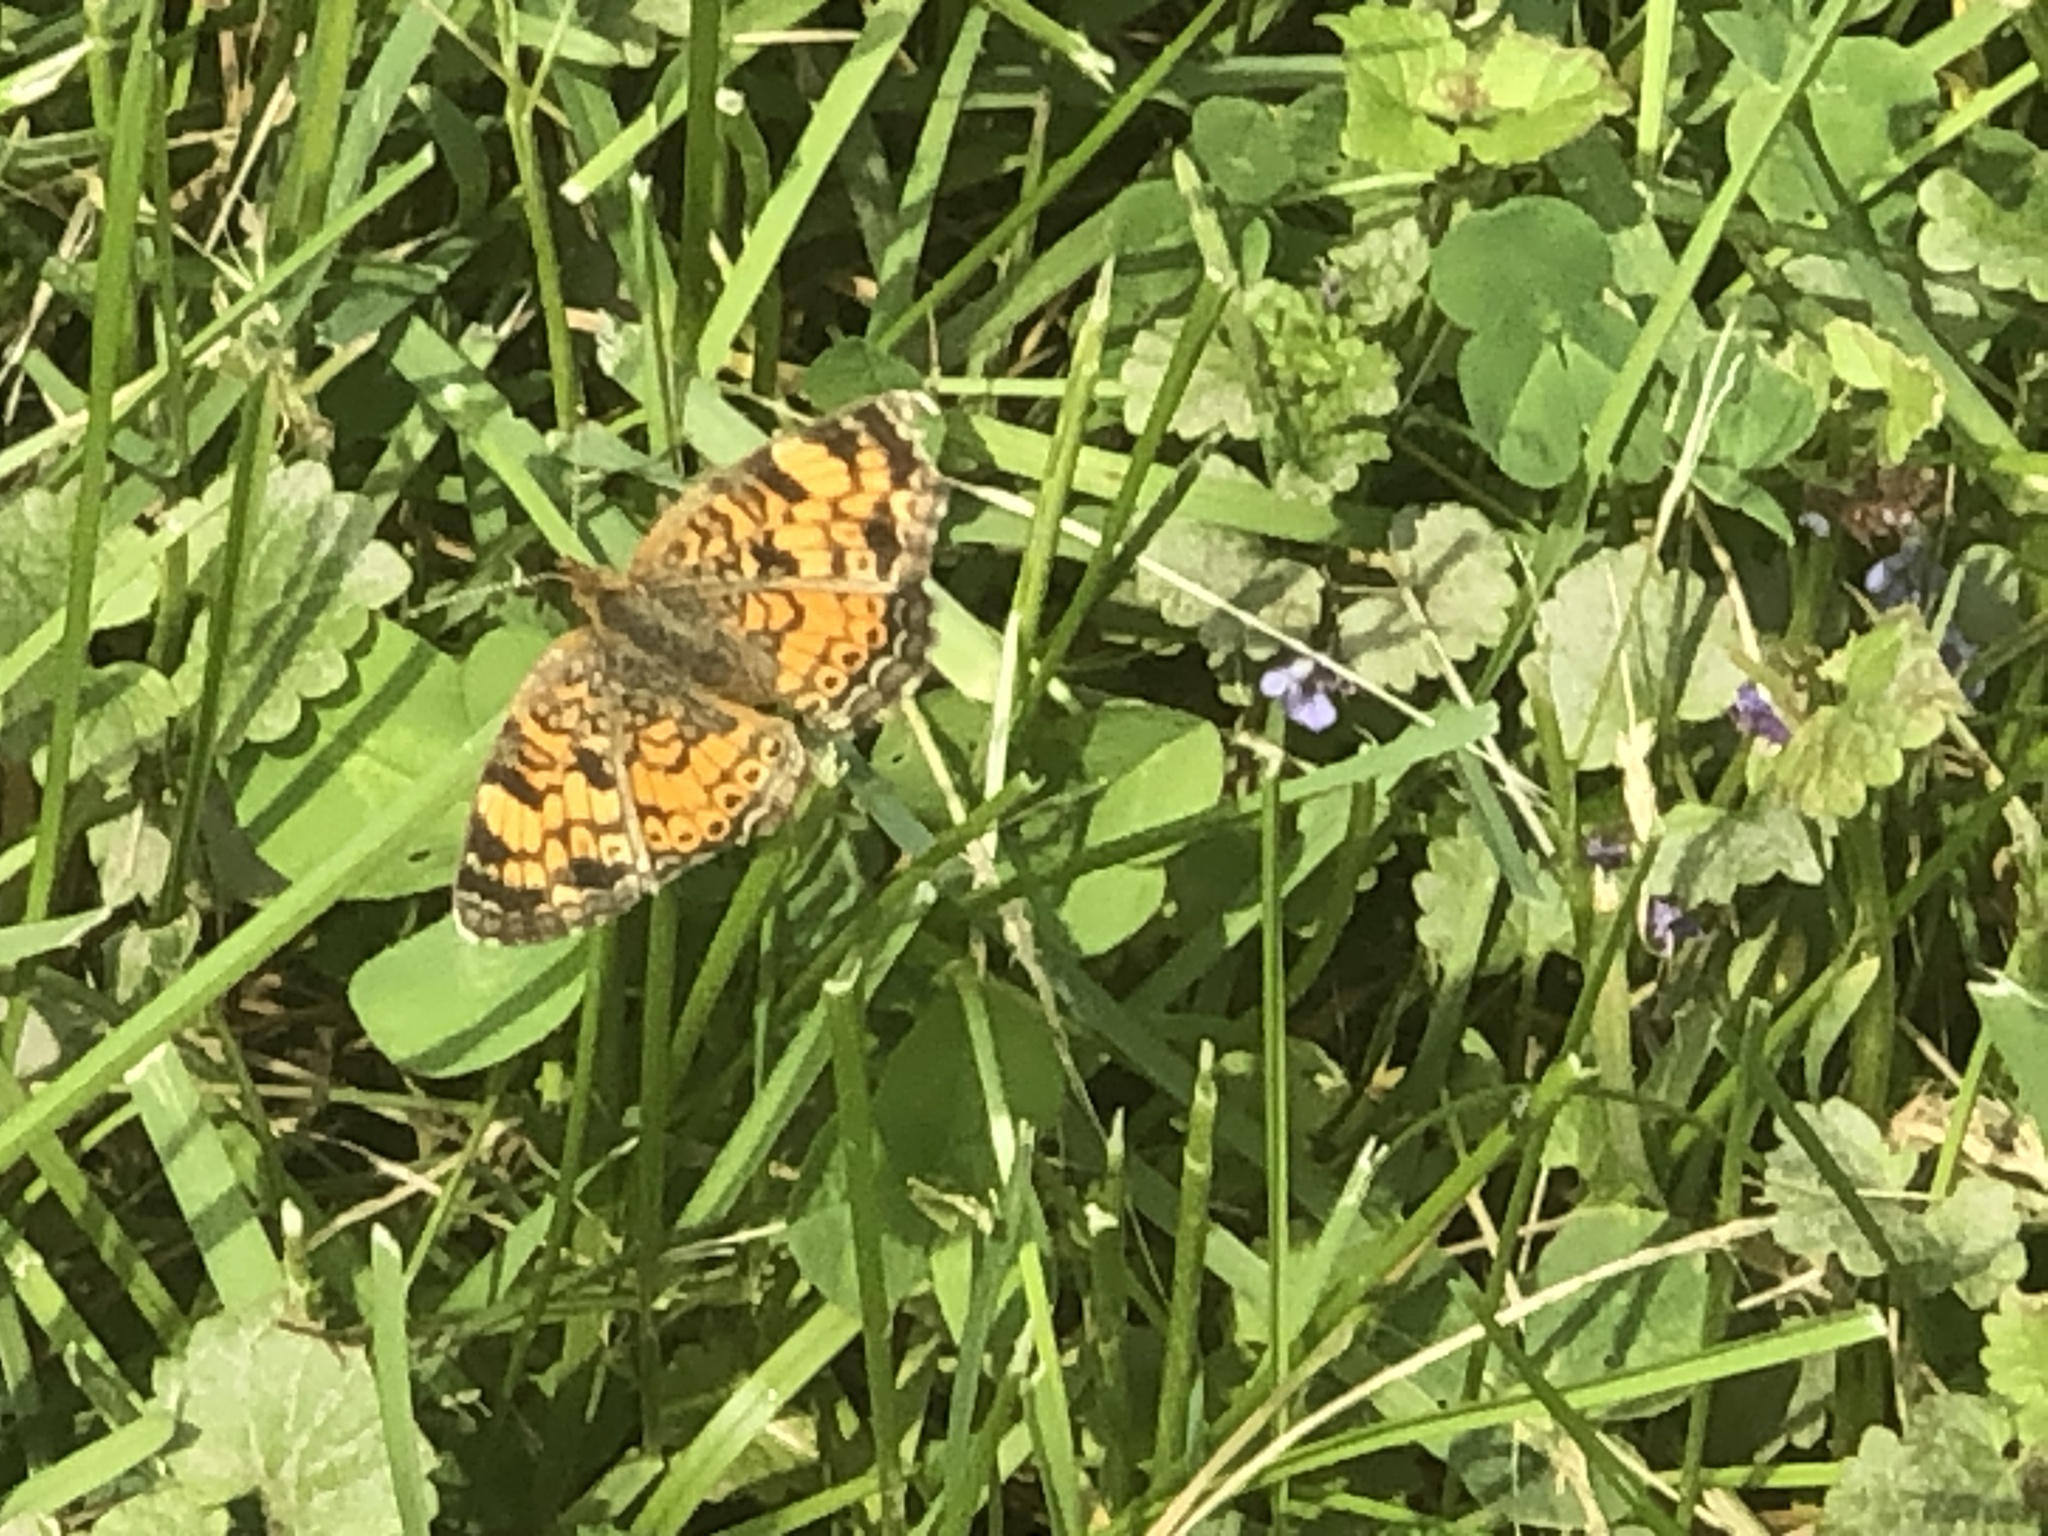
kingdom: Animalia
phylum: Arthropoda
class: Insecta
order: Lepidoptera
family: Nymphalidae
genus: Phyciodes
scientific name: Phyciodes tharos
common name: Pearl crescent
